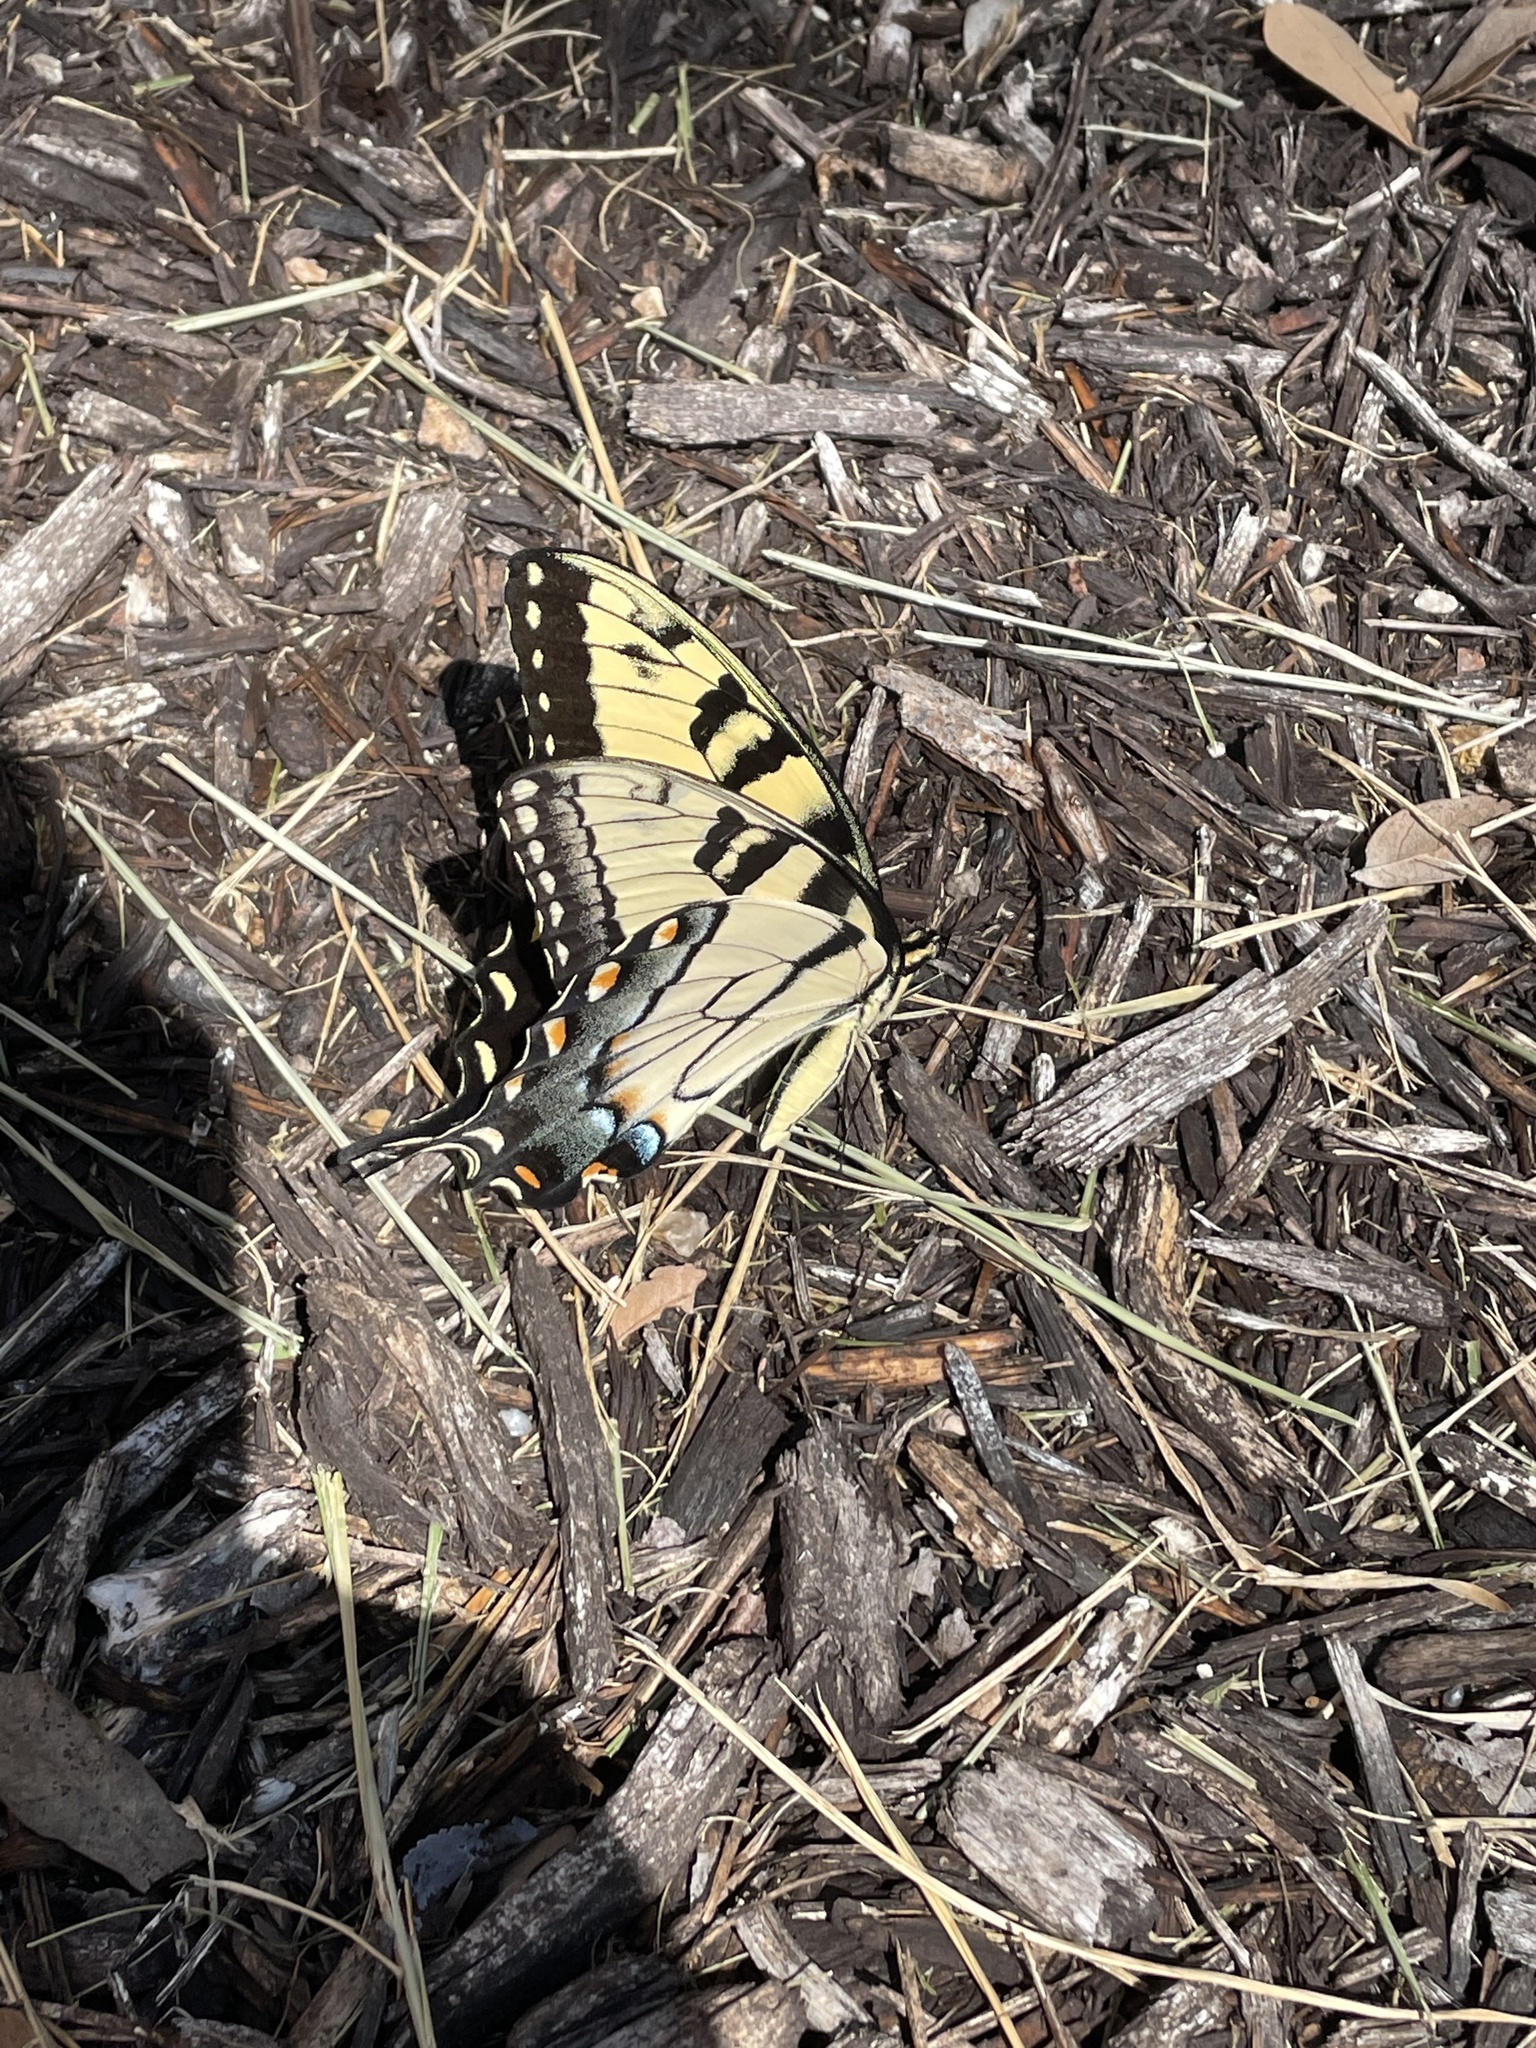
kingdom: Animalia
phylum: Arthropoda
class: Insecta
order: Lepidoptera
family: Papilionidae
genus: Papilio
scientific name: Papilio glaucus
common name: Tiger swallowtail
